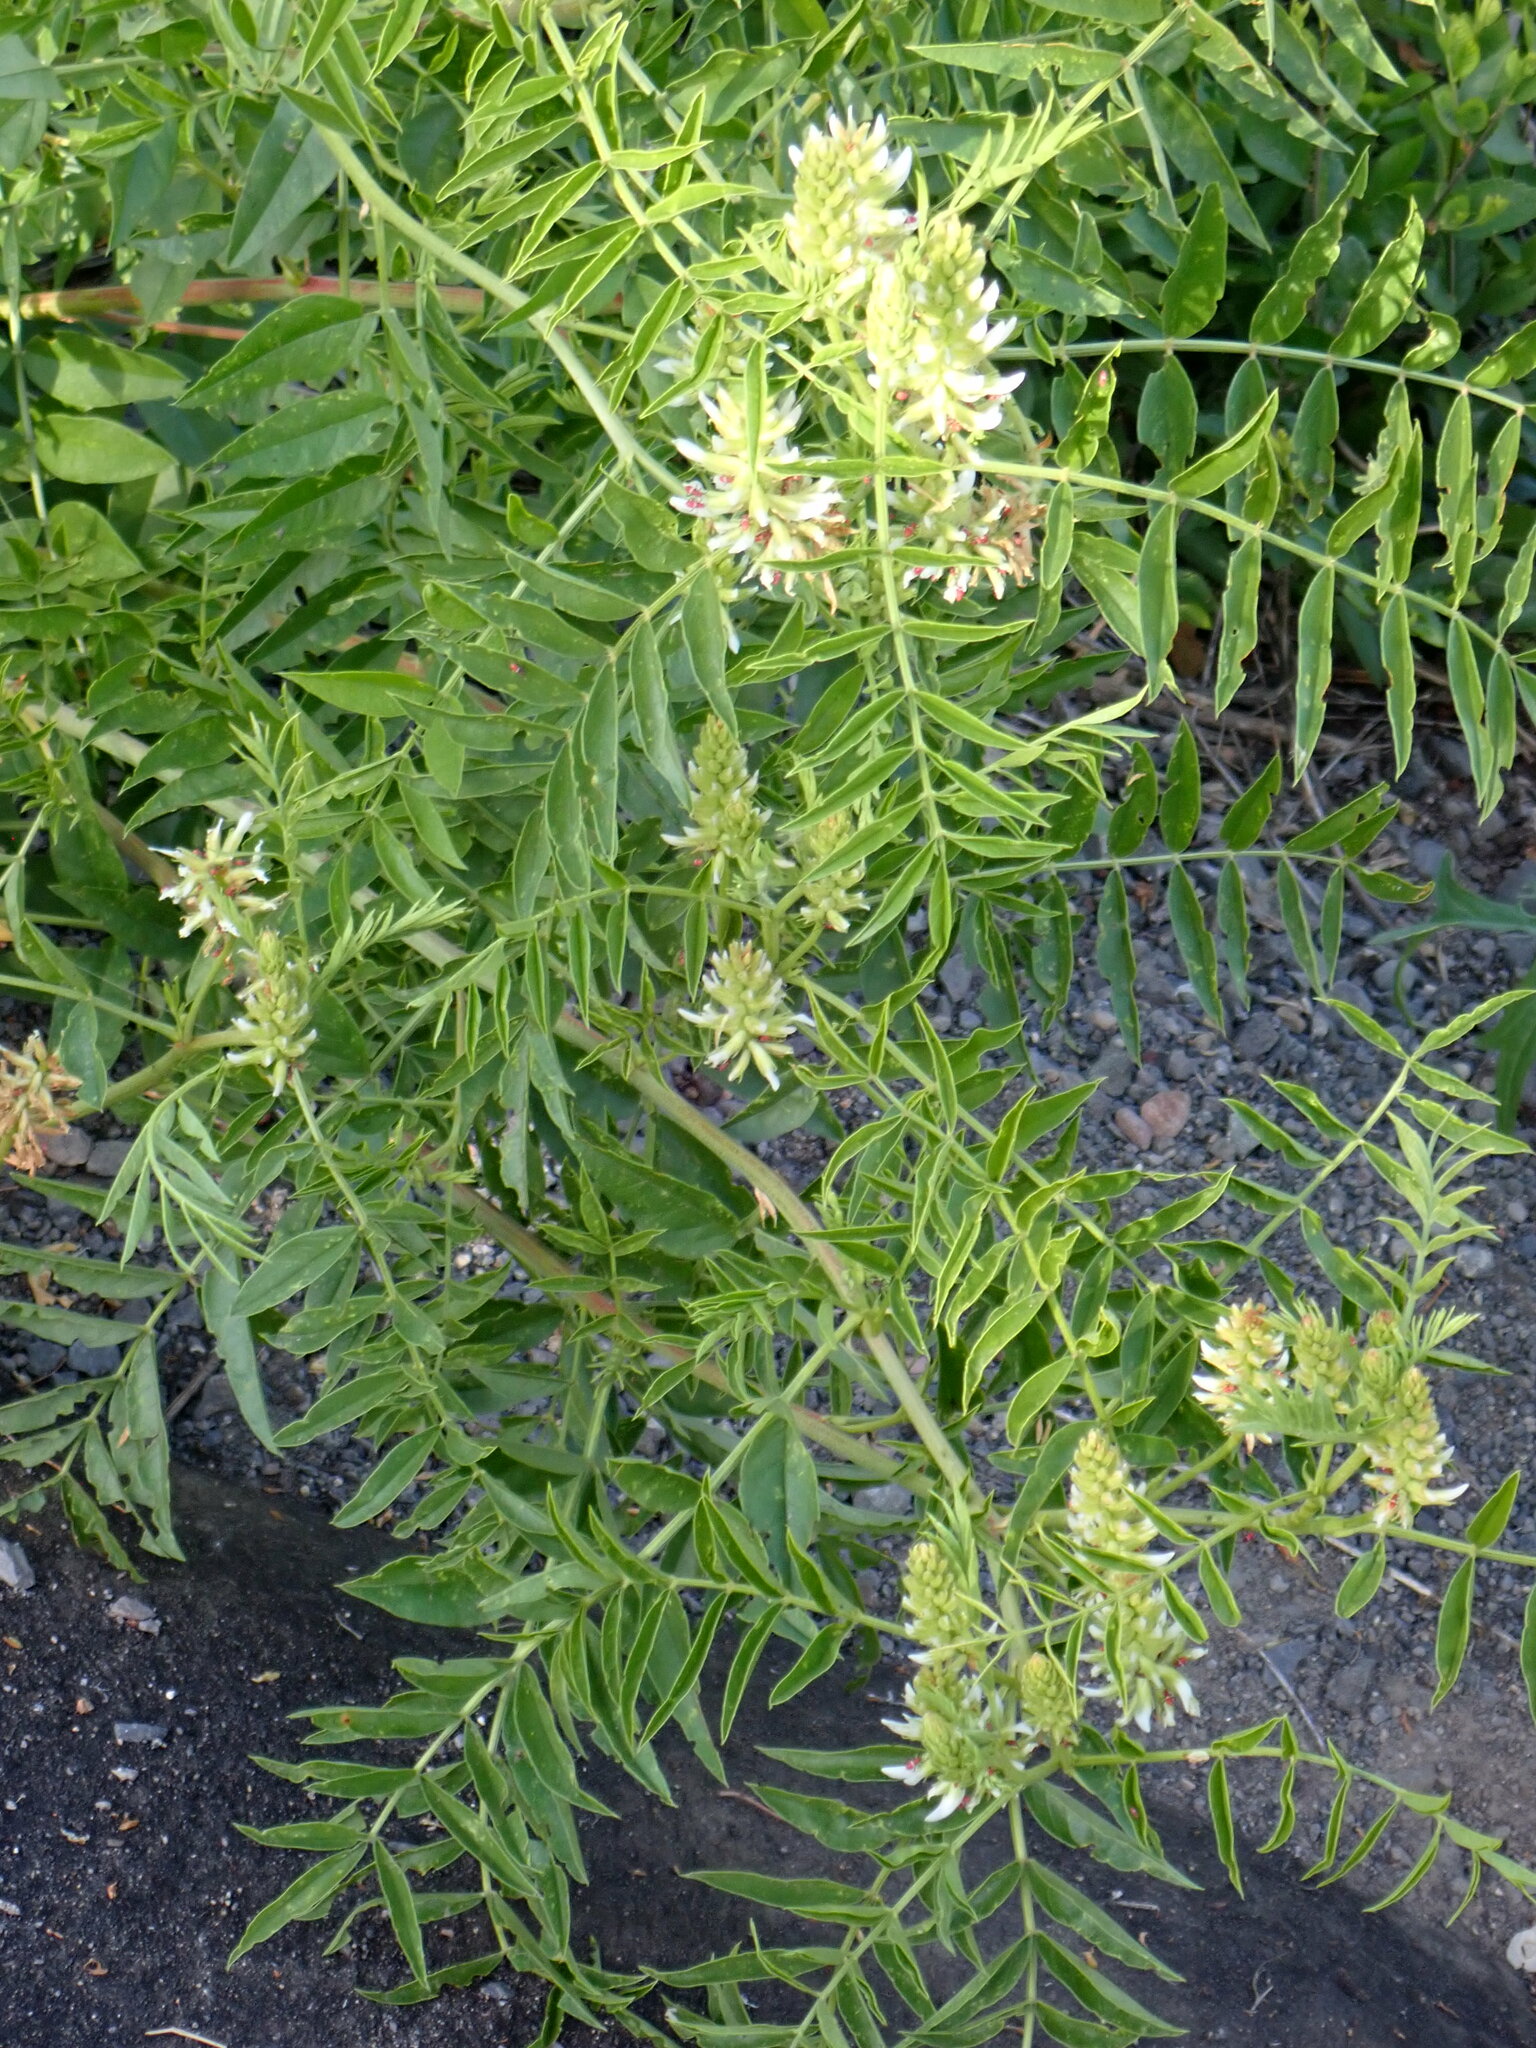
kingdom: Plantae
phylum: Tracheophyta
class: Magnoliopsida
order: Fabales
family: Fabaceae
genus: Glycyrrhiza
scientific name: Glycyrrhiza lepidota
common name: American liquorice
